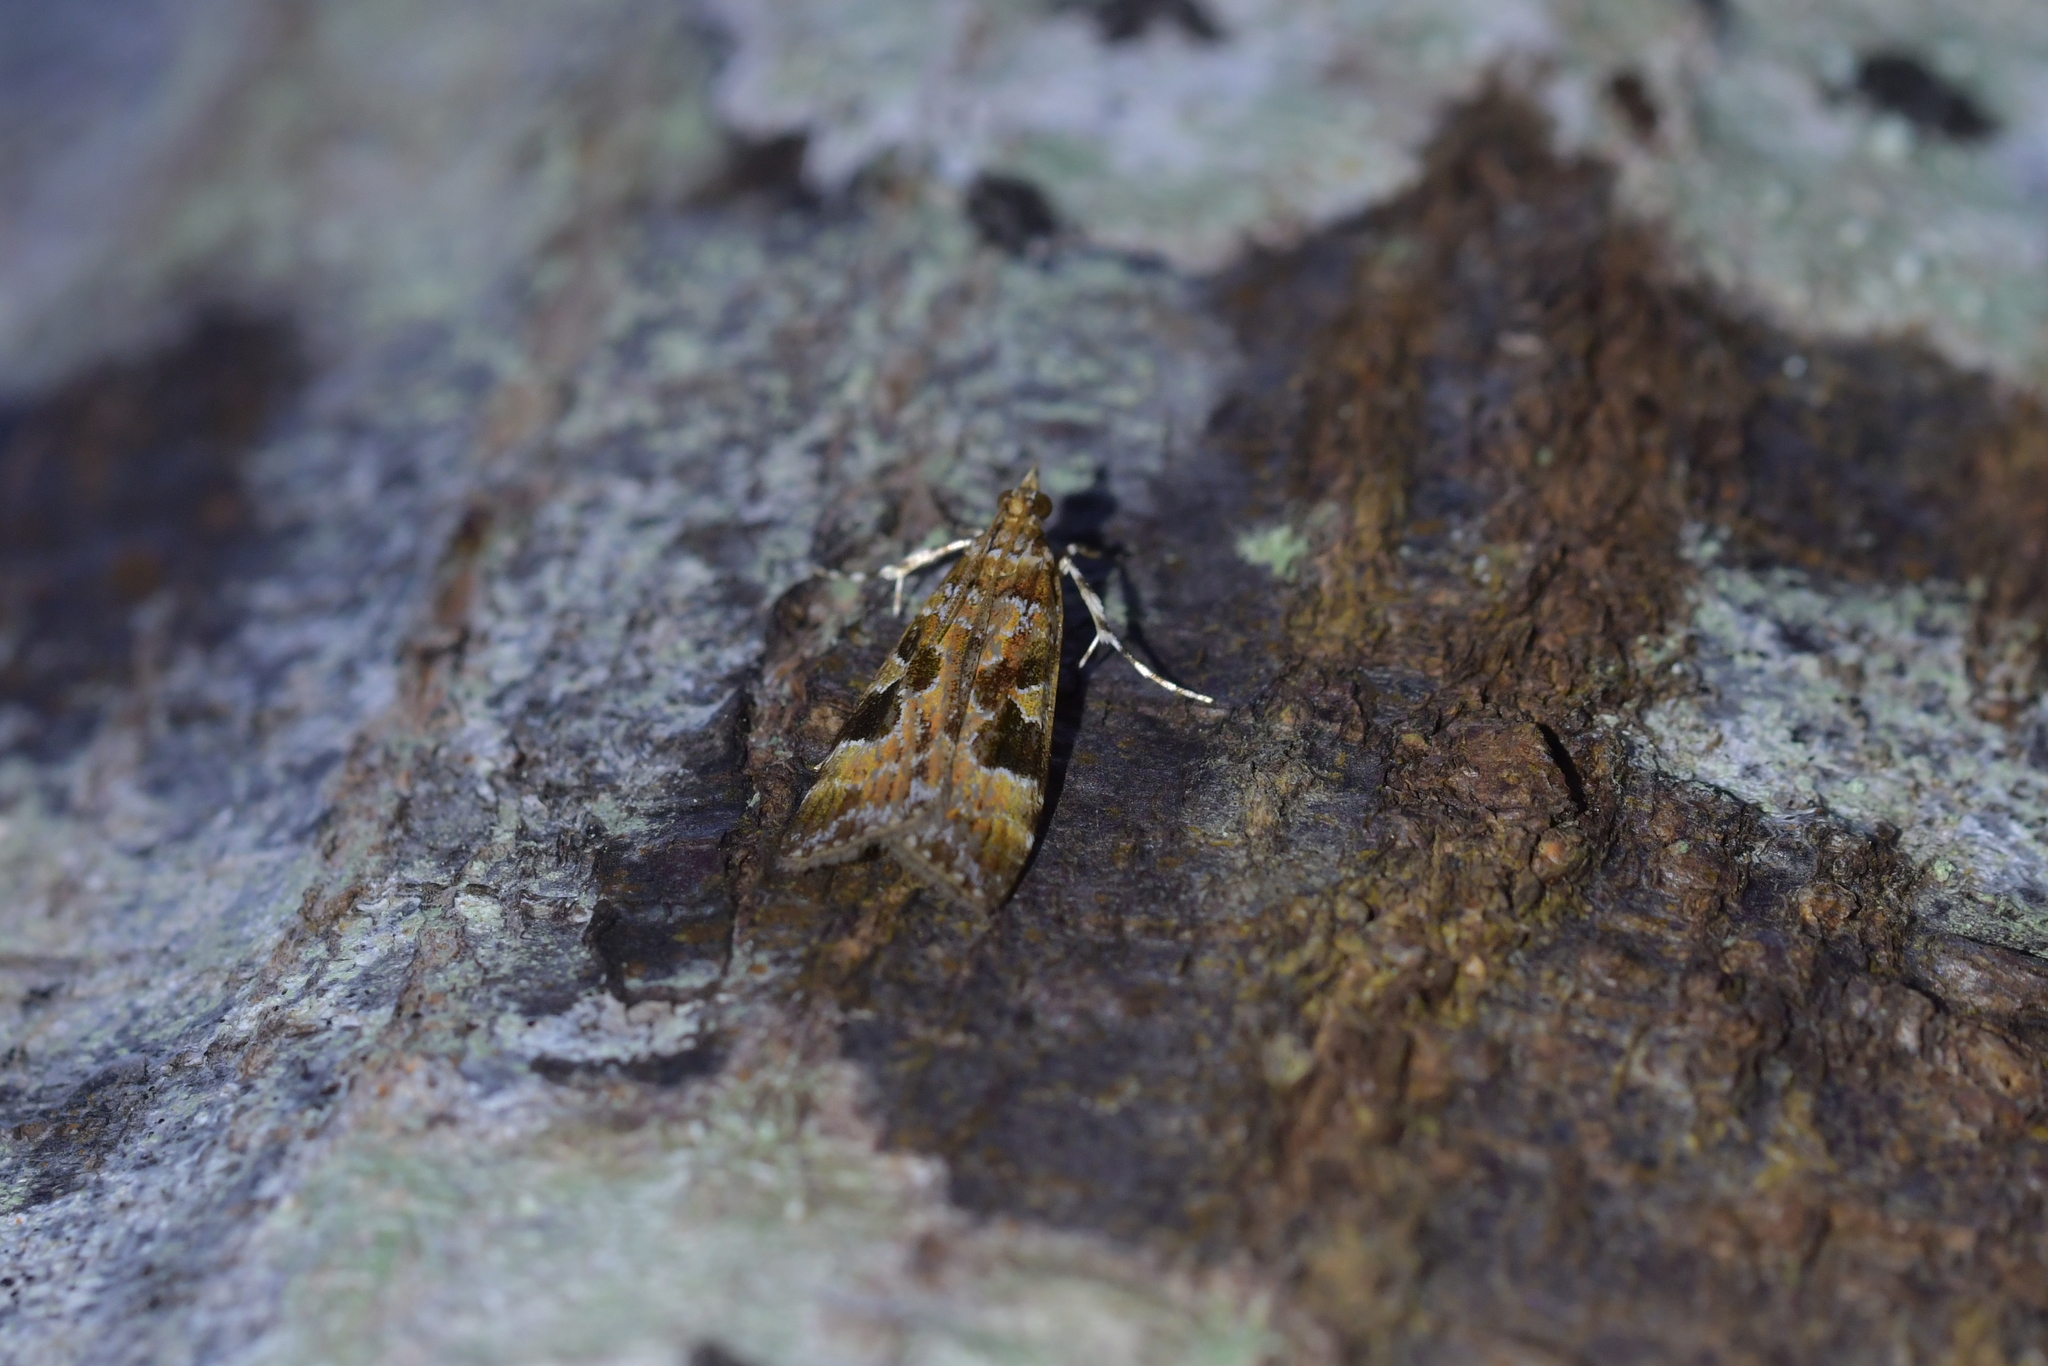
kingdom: Animalia
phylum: Arthropoda
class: Insecta
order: Lepidoptera
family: Crambidae
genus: Scoparia
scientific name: Scoparia ustimacula
